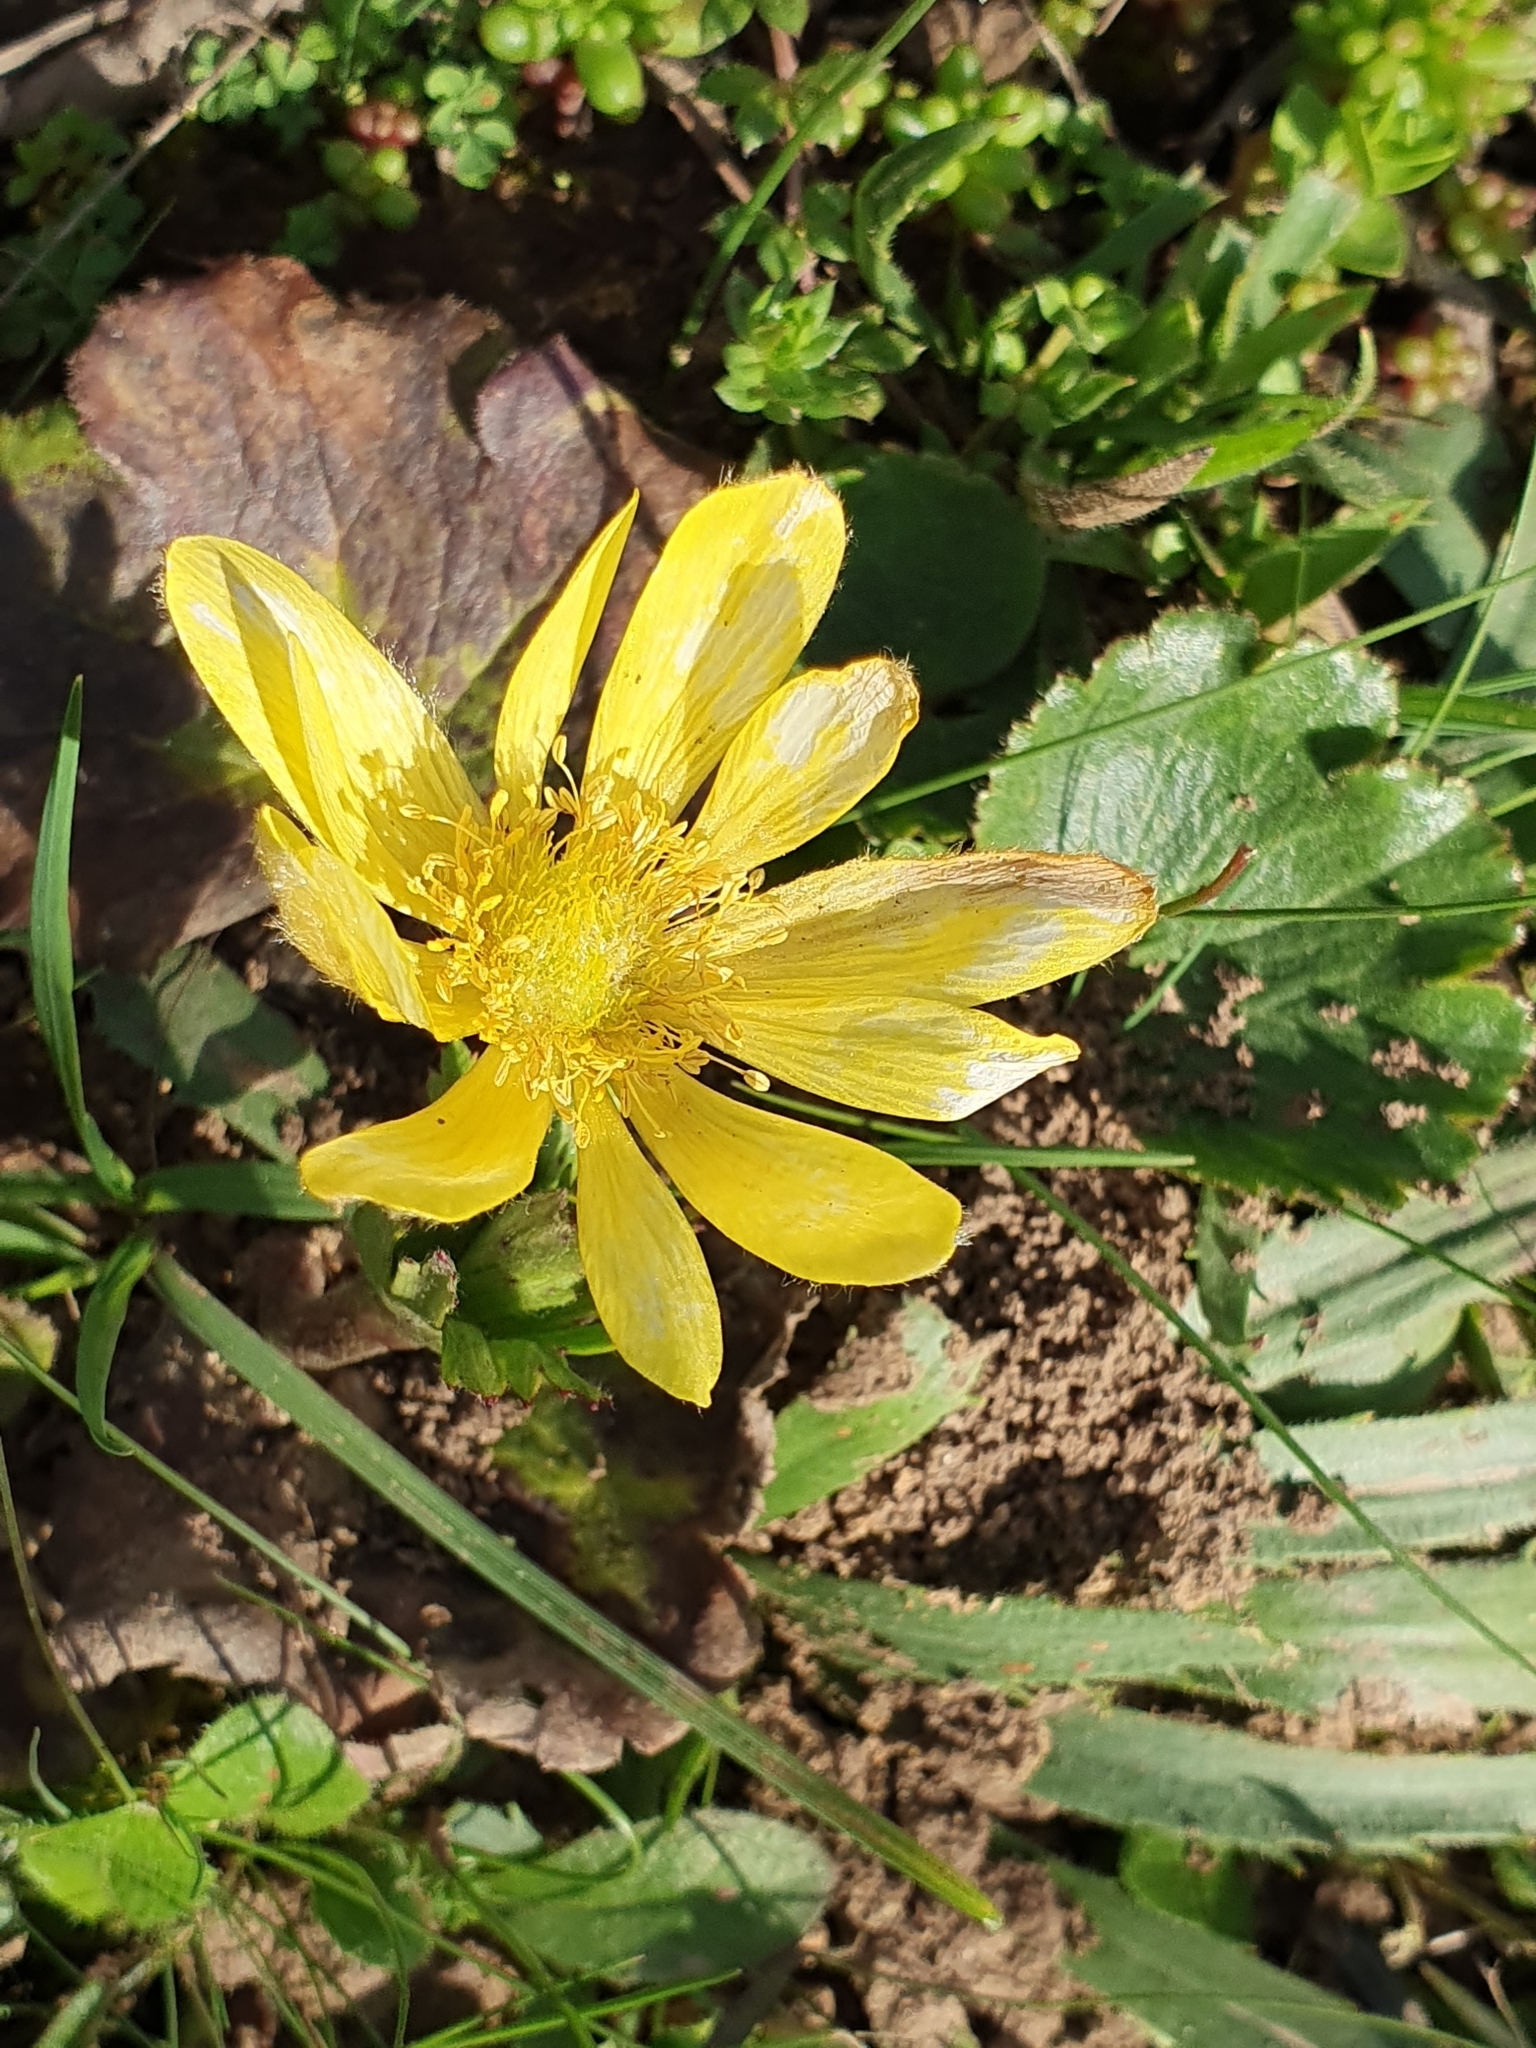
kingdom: Plantae
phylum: Tracheophyta
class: Magnoliopsida
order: Ranunculales
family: Ranunculaceae
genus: Anemone
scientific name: Anemone palmata
